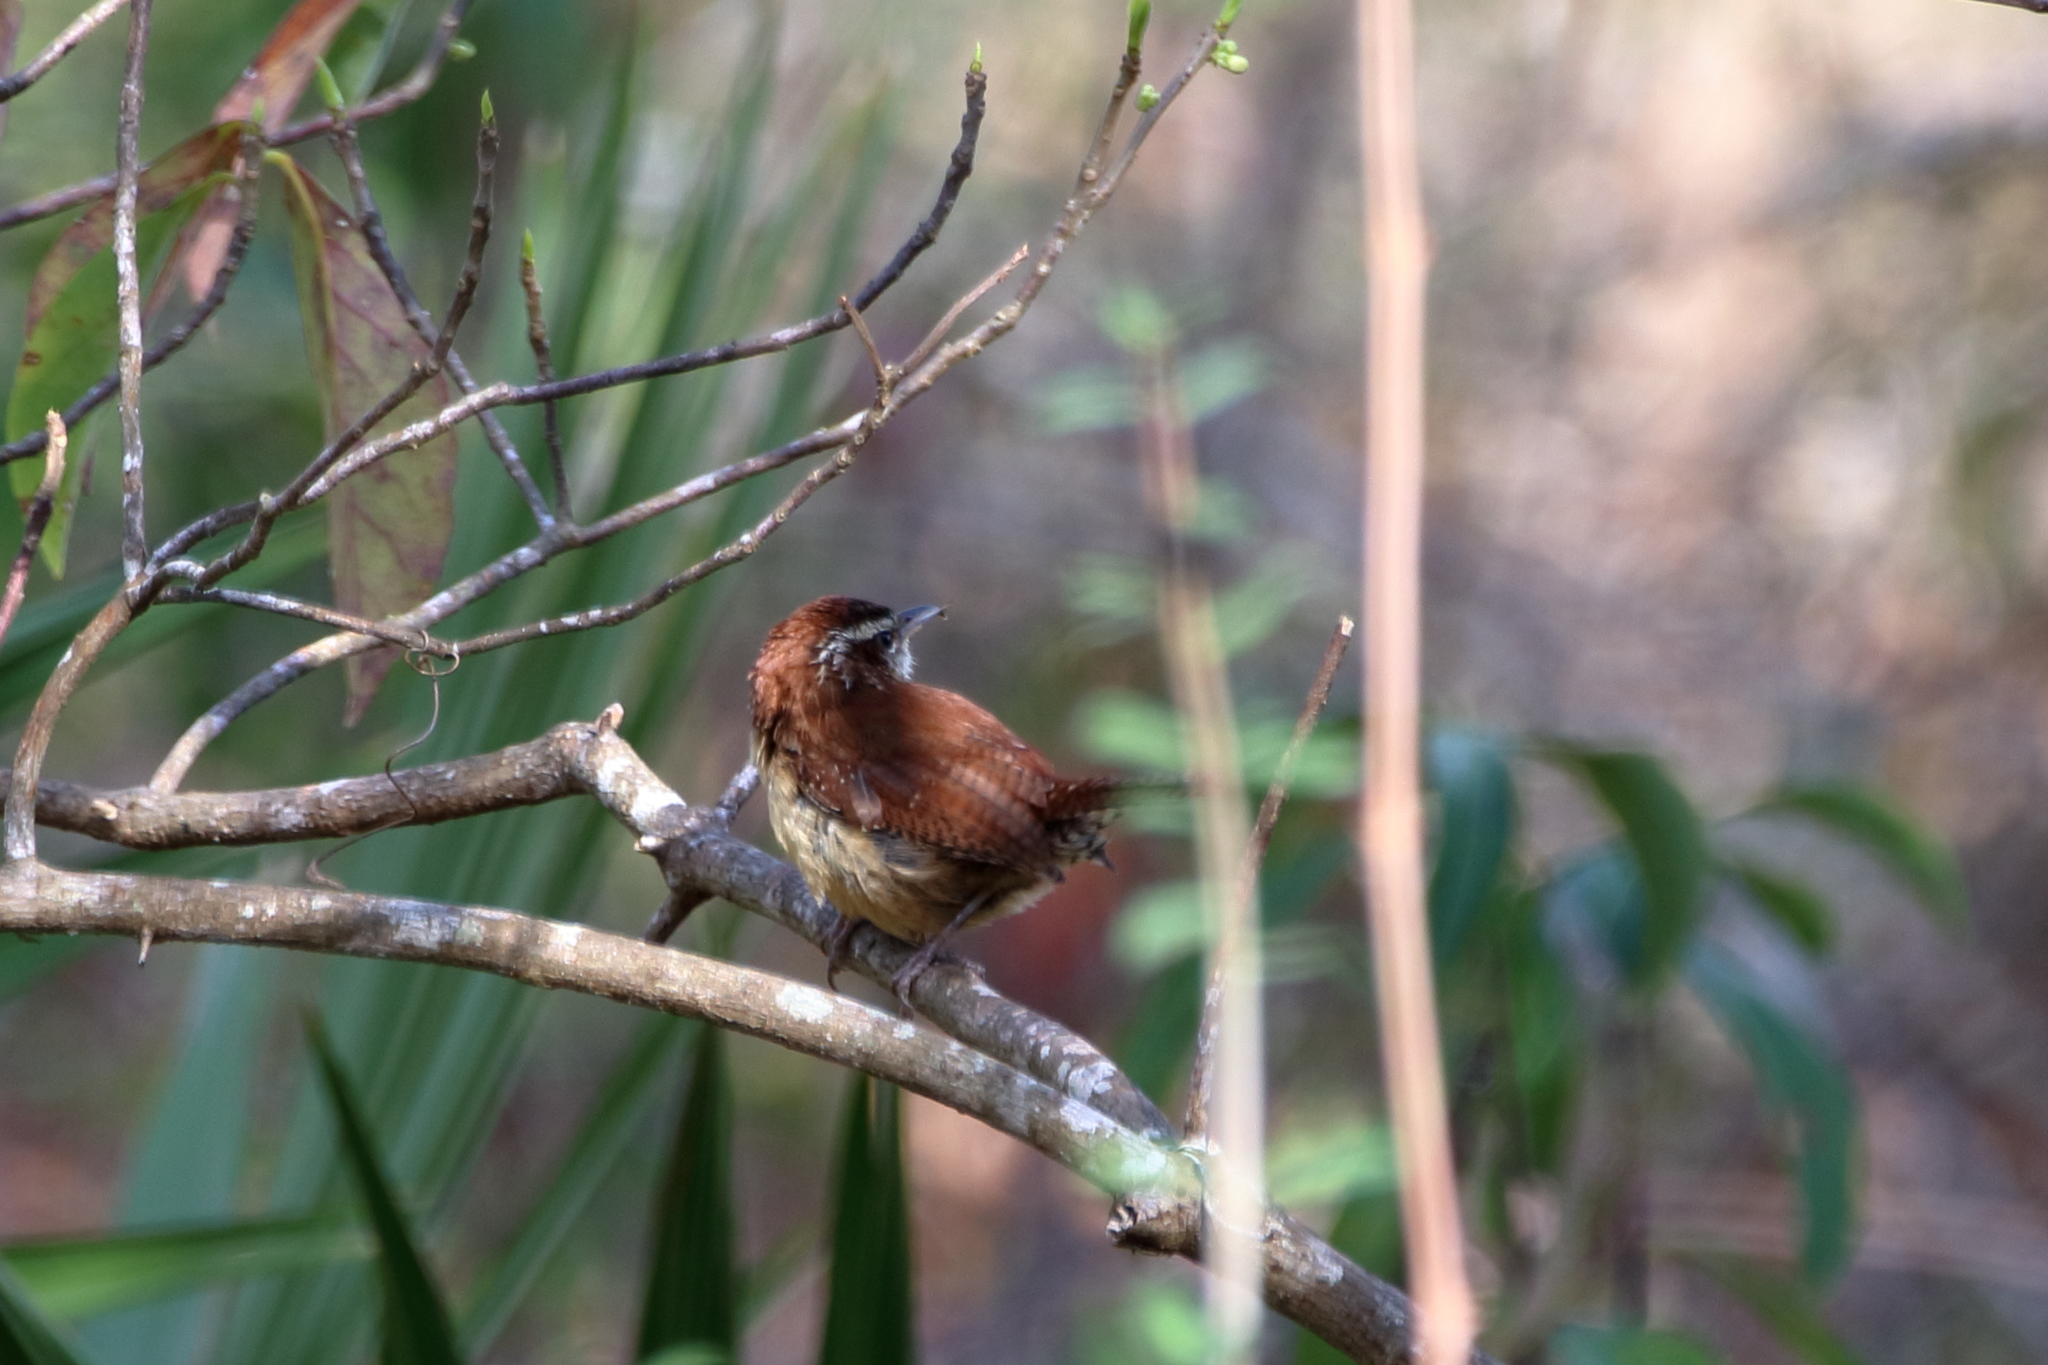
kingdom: Animalia
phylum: Chordata
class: Aves
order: Passeriformes
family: Troglodytidae
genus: Thryothorus
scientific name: Thryothorus ludovicianus
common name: Carolina wren
